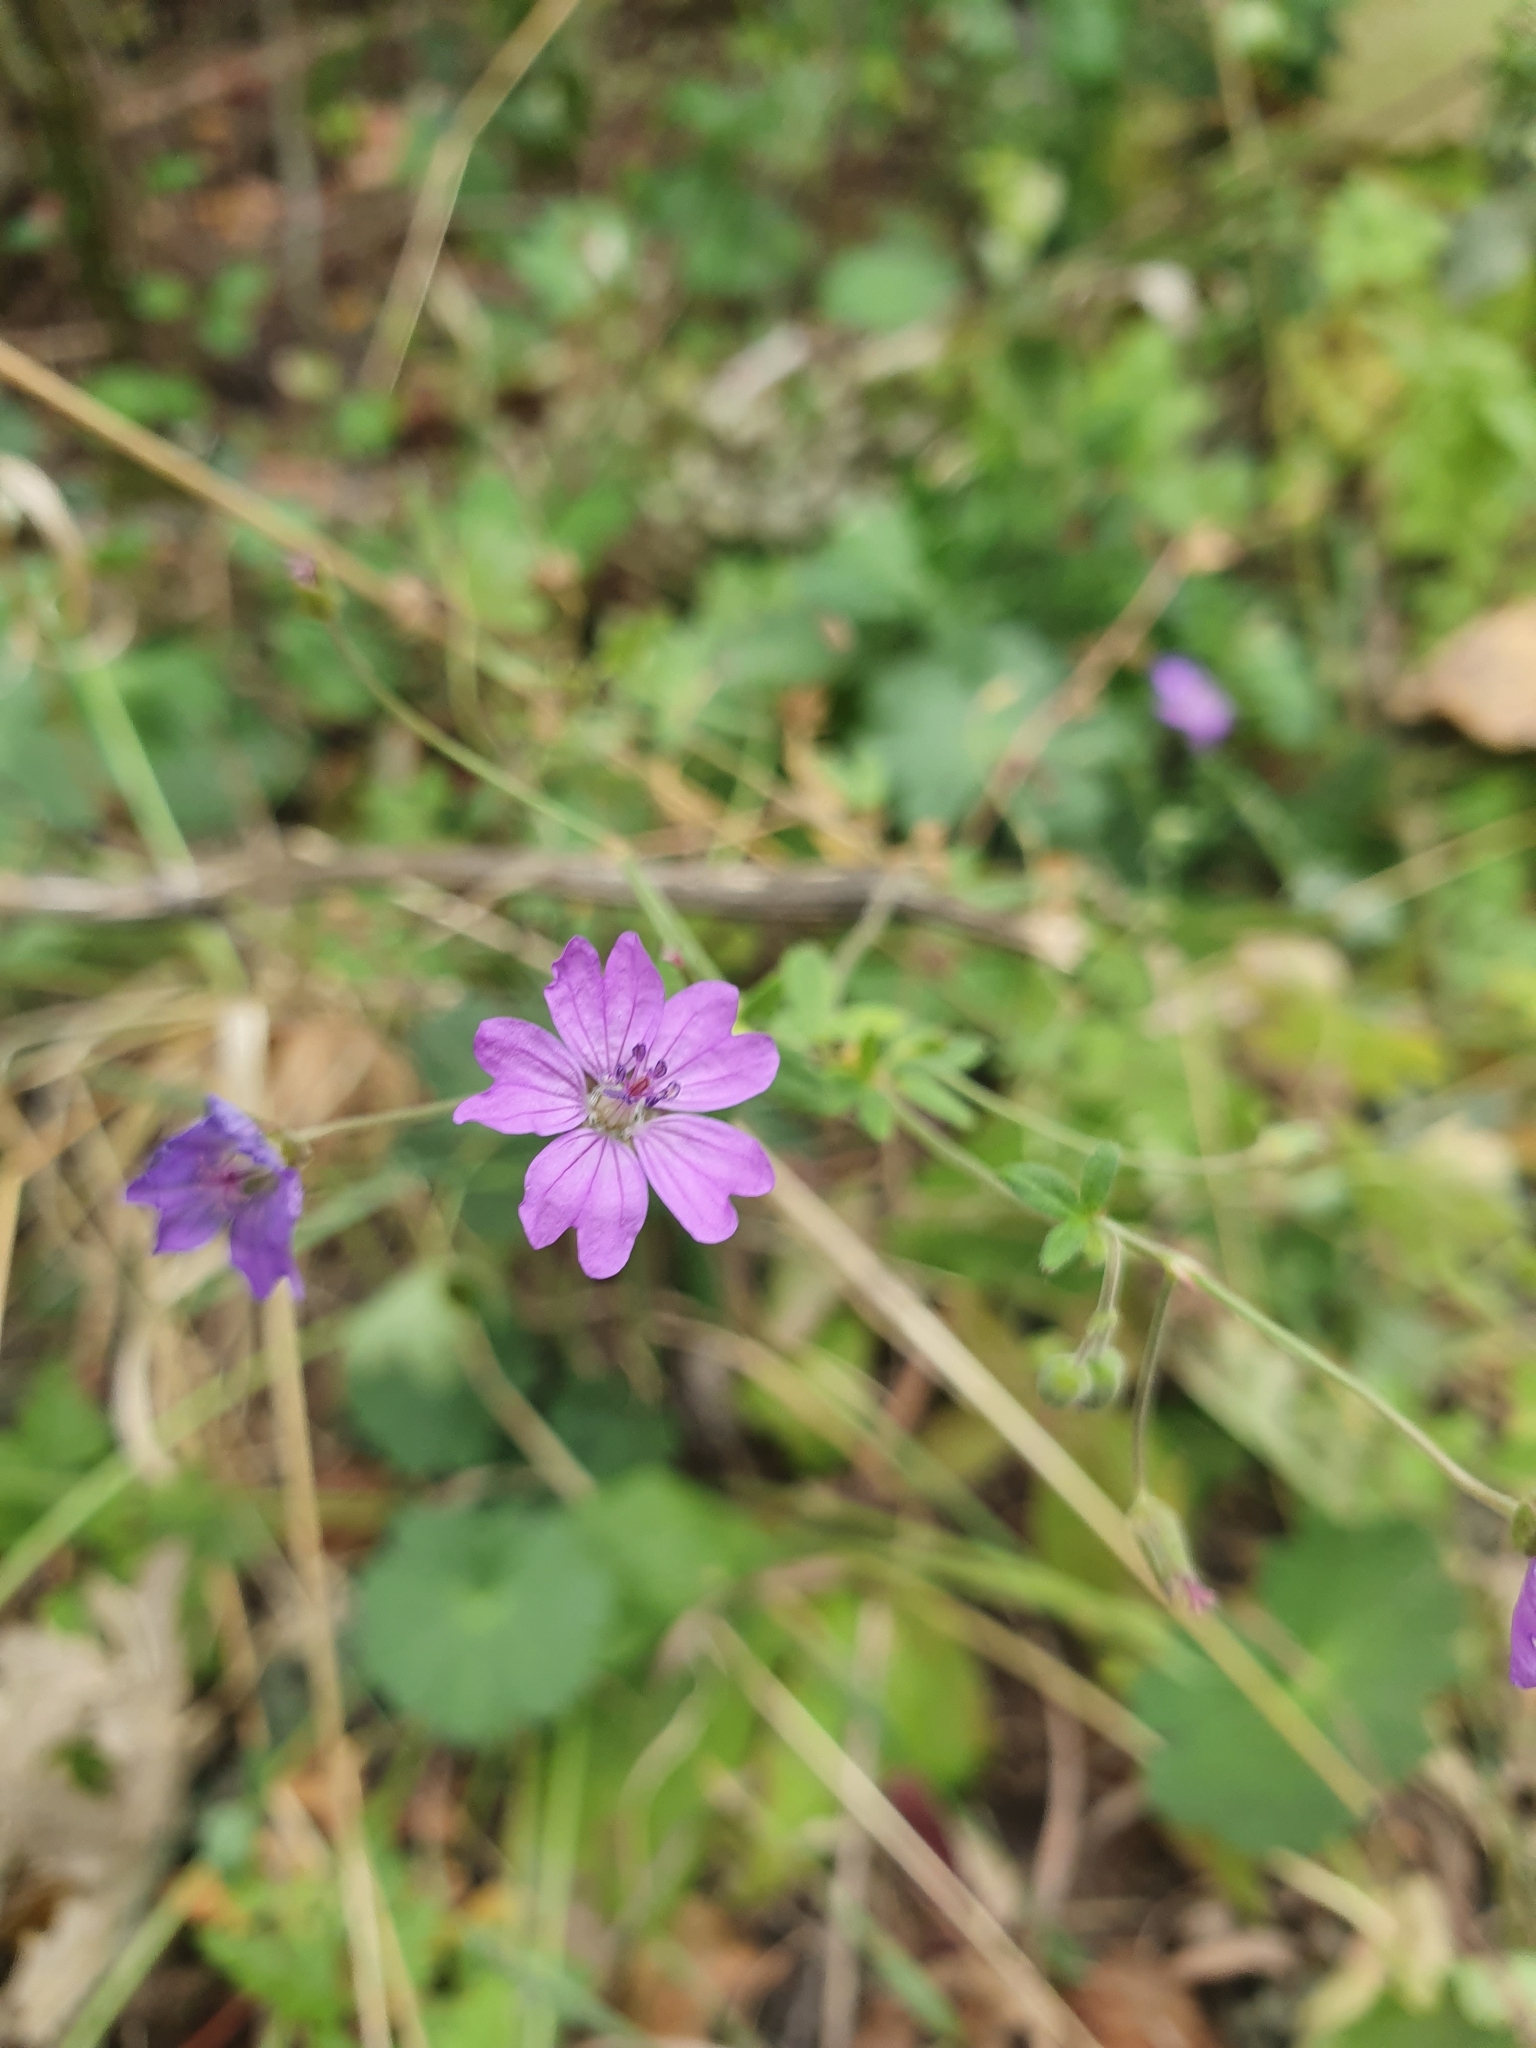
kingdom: Plantae
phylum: Tracheophyta
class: Magnoliopsida
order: Geraniales
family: Geraniaceae
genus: Geranium
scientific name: Geranium pyrenaicum
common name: Hedgerow crane's-bill
